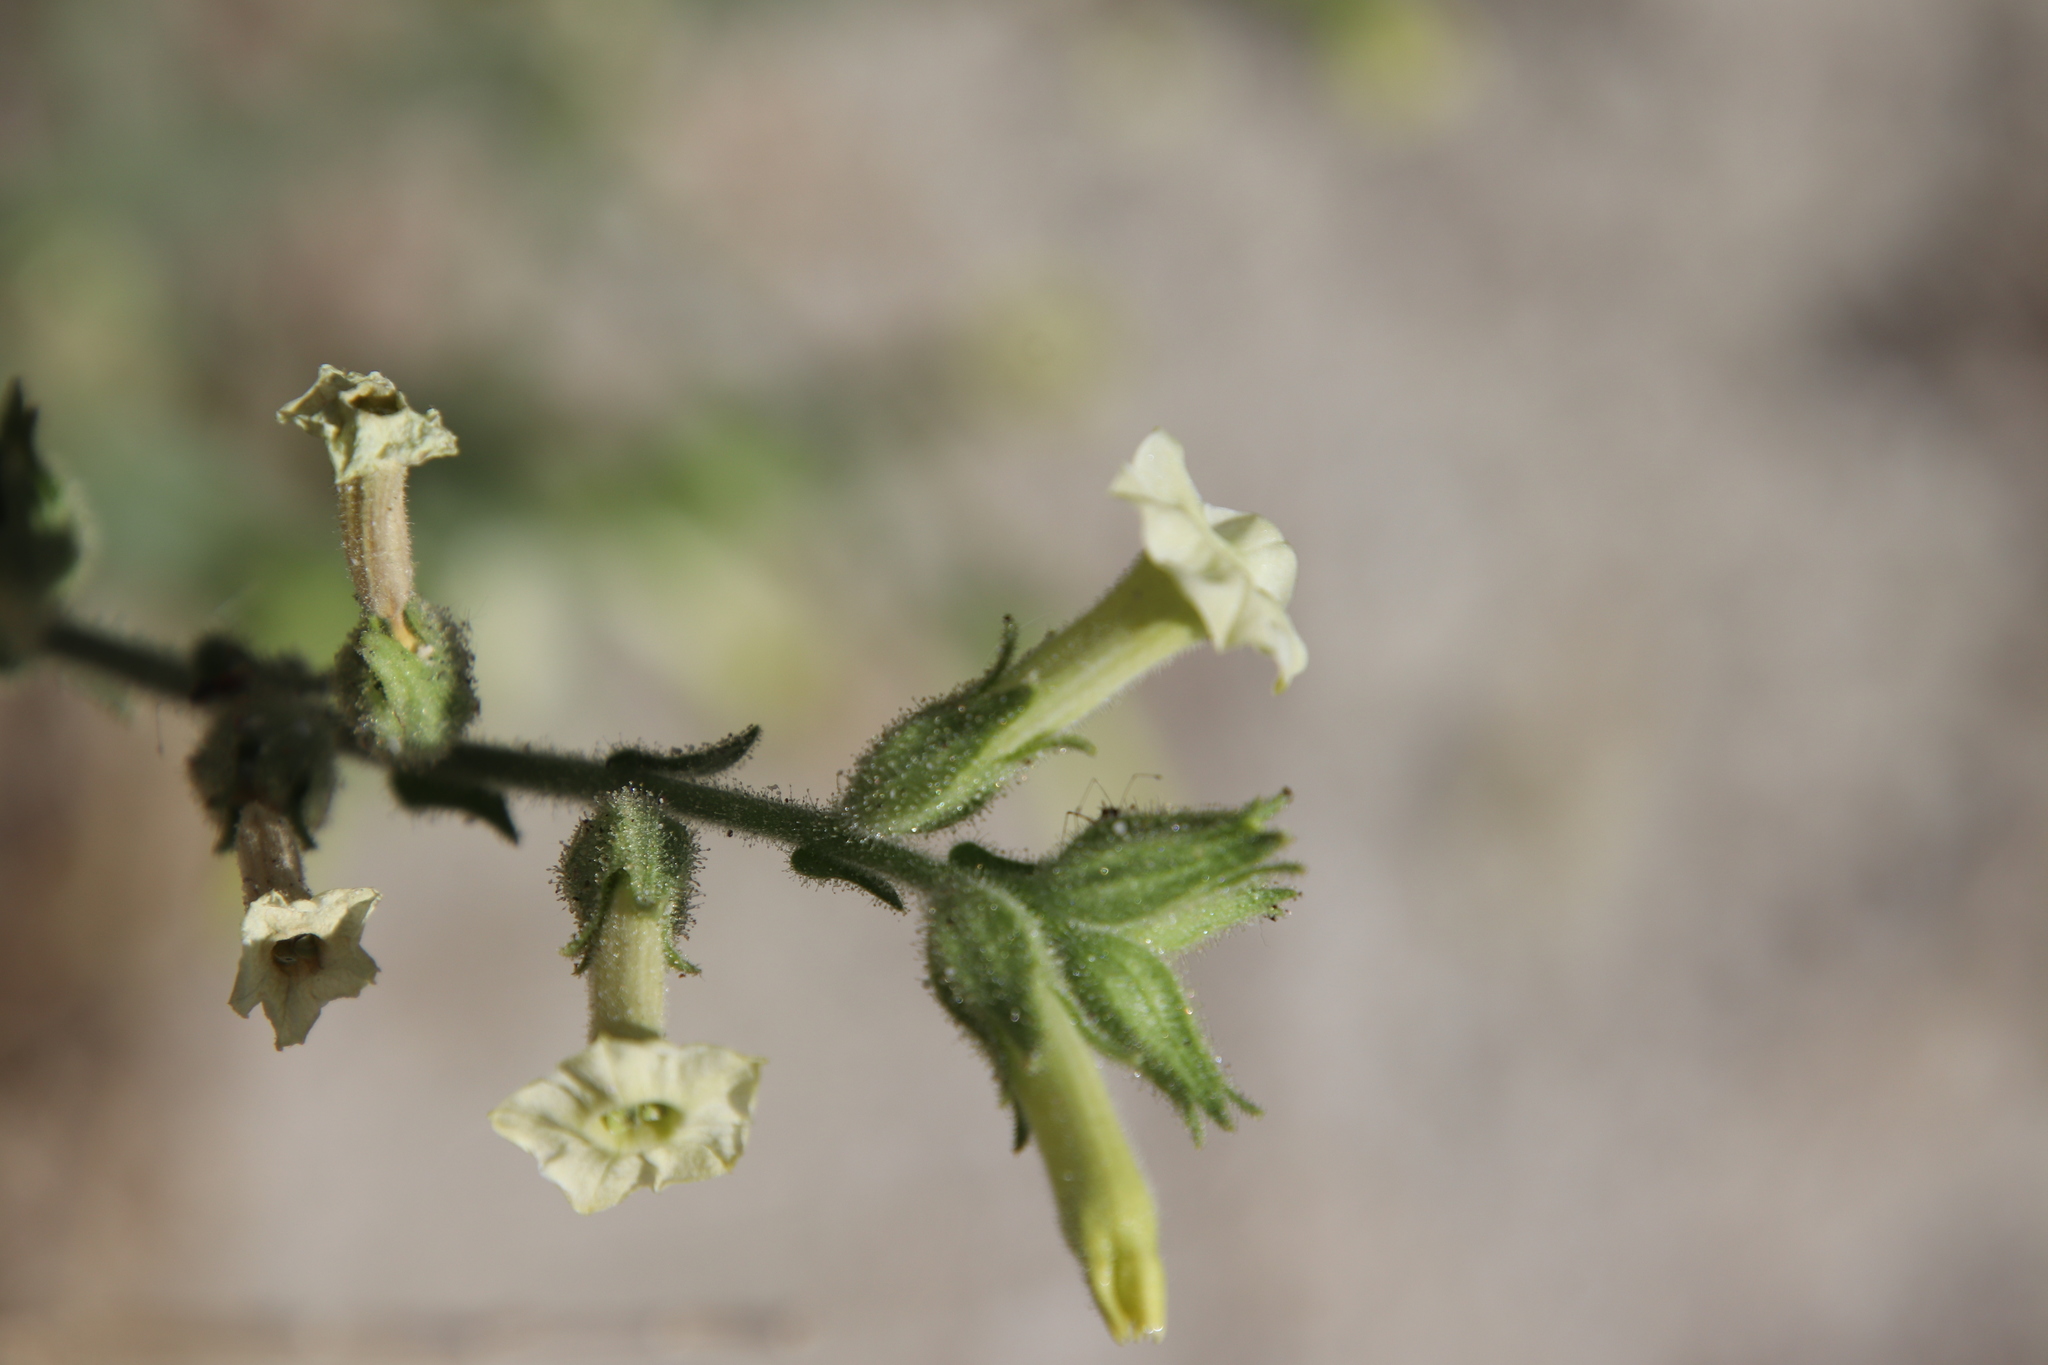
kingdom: Plantae
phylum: Tracheophyta
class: Magnoliopsida
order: Solanales
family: Solanaceae
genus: Nicotiana
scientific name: Nicotiana obtusifolia
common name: Desert tobacco
